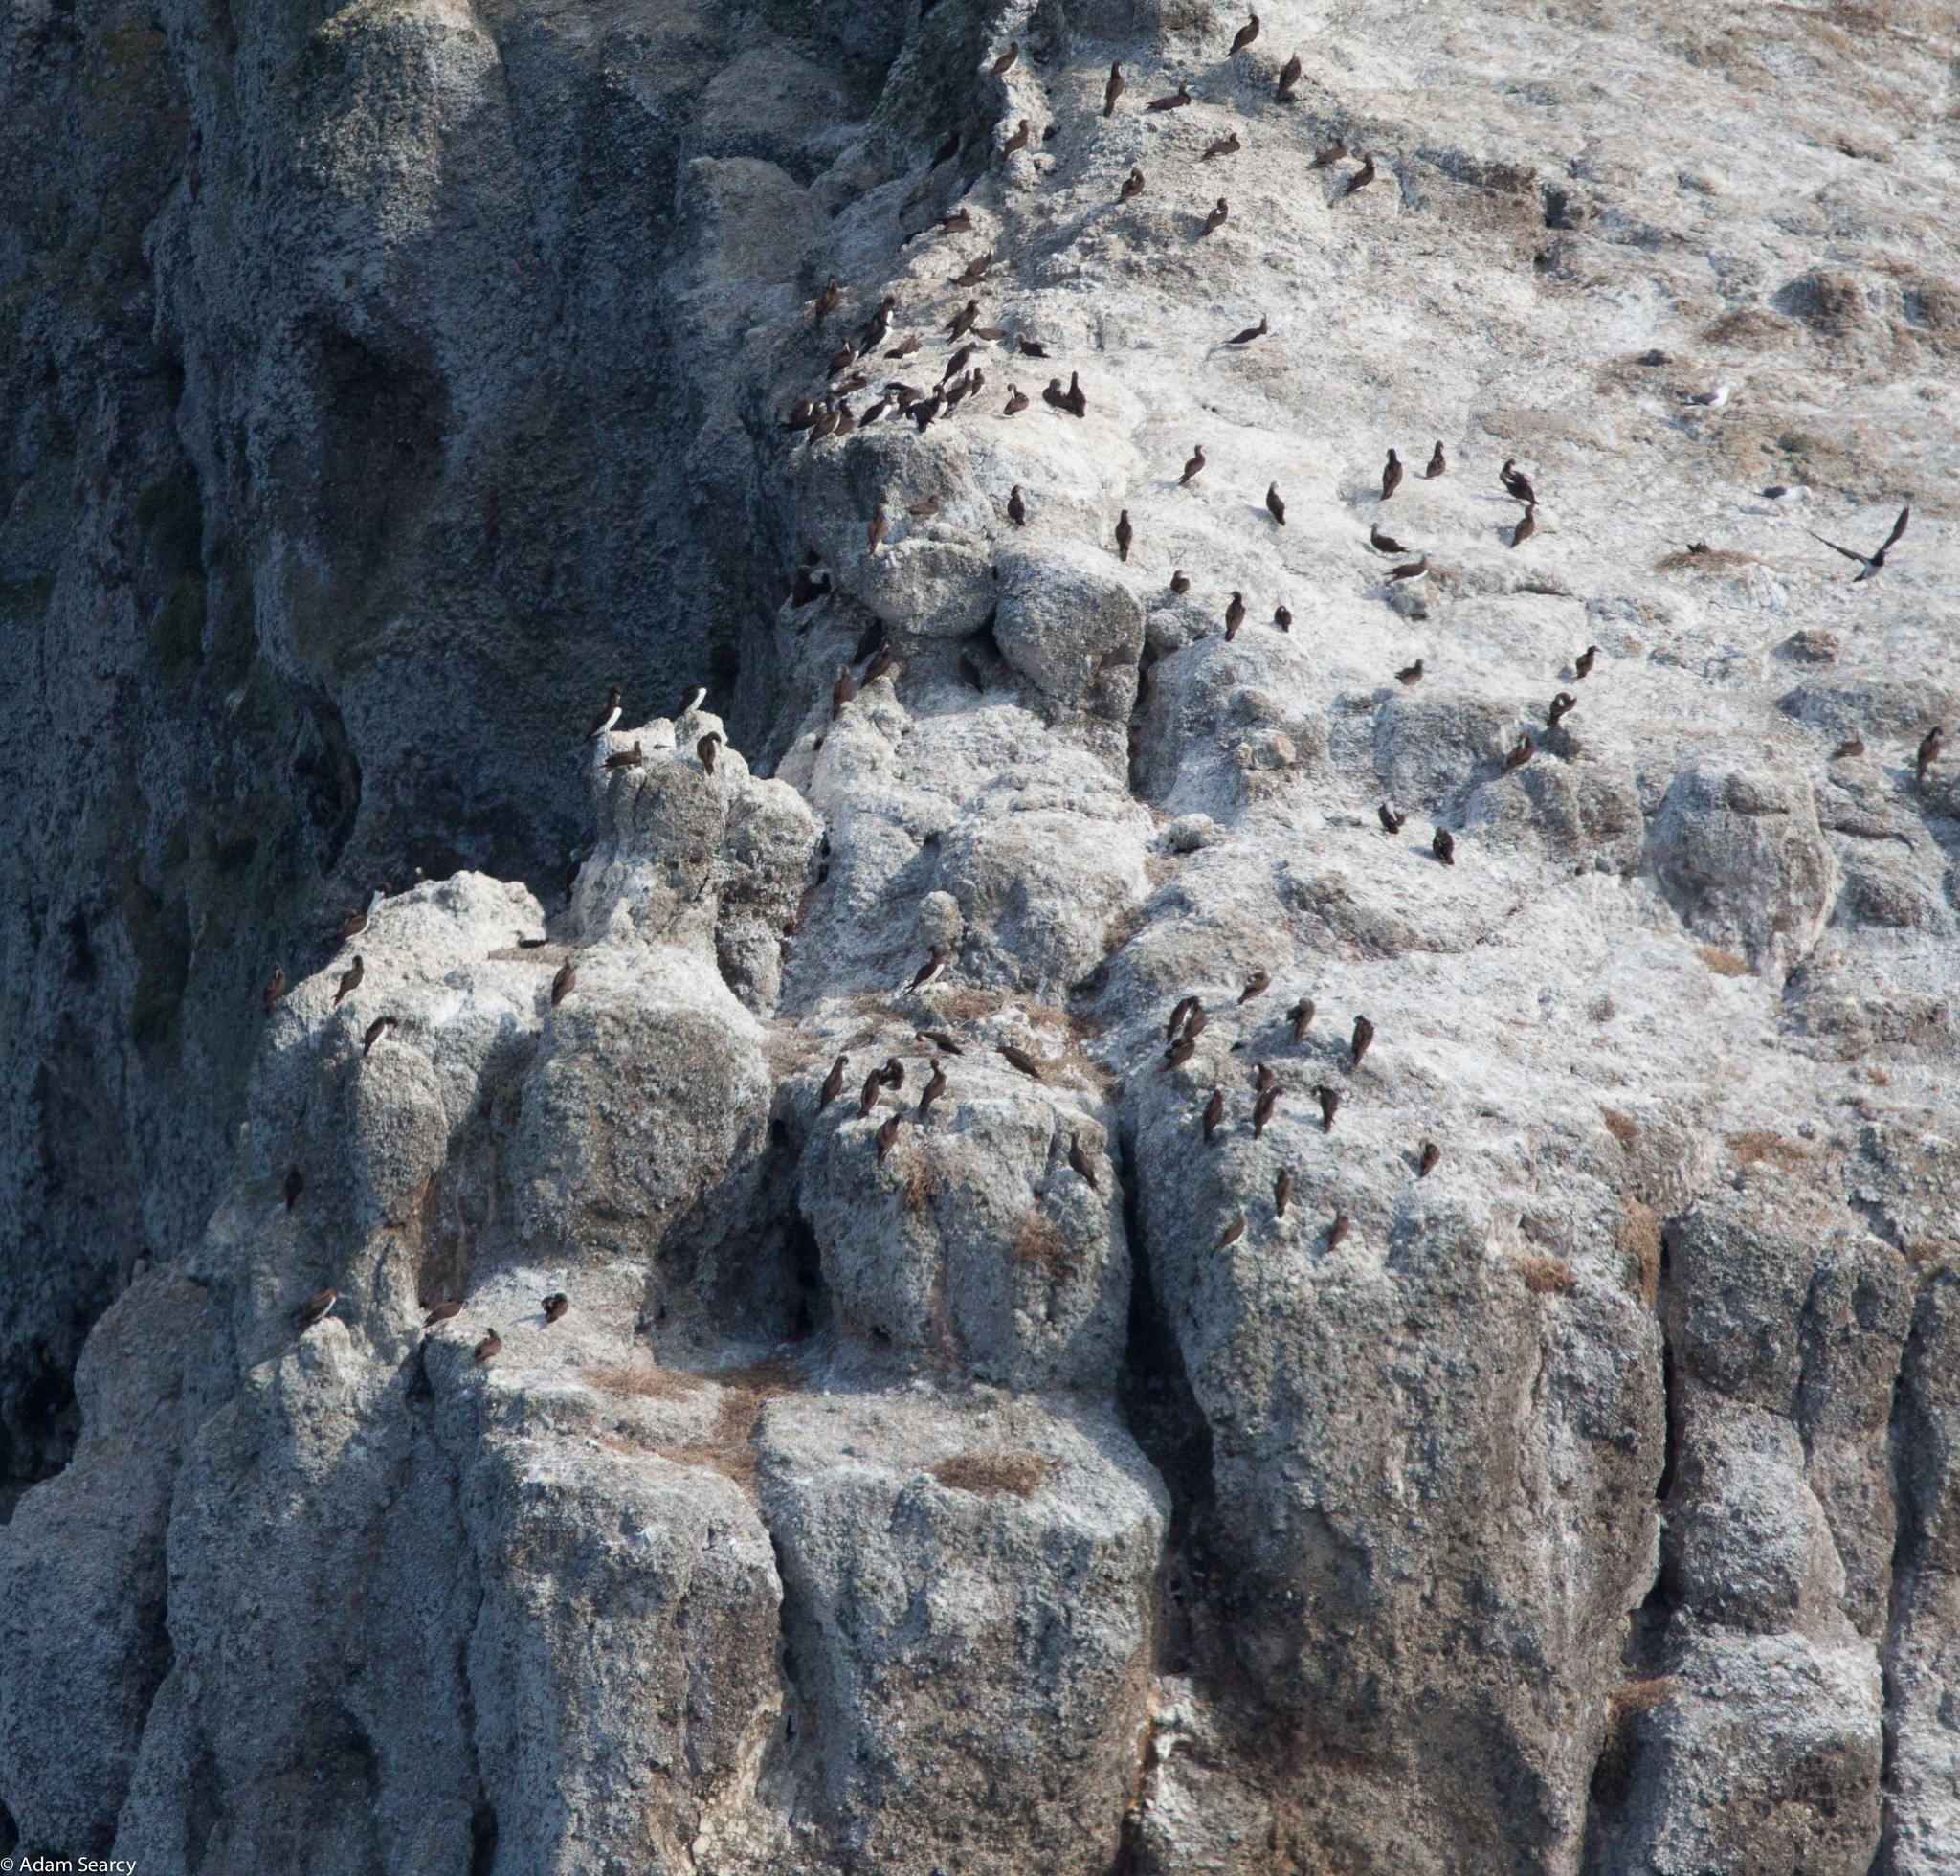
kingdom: Animalia
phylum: Chordata
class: Aves
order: Suliformes
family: Sulidae
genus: Sula
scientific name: Sula leucogaster
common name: Brown booby
